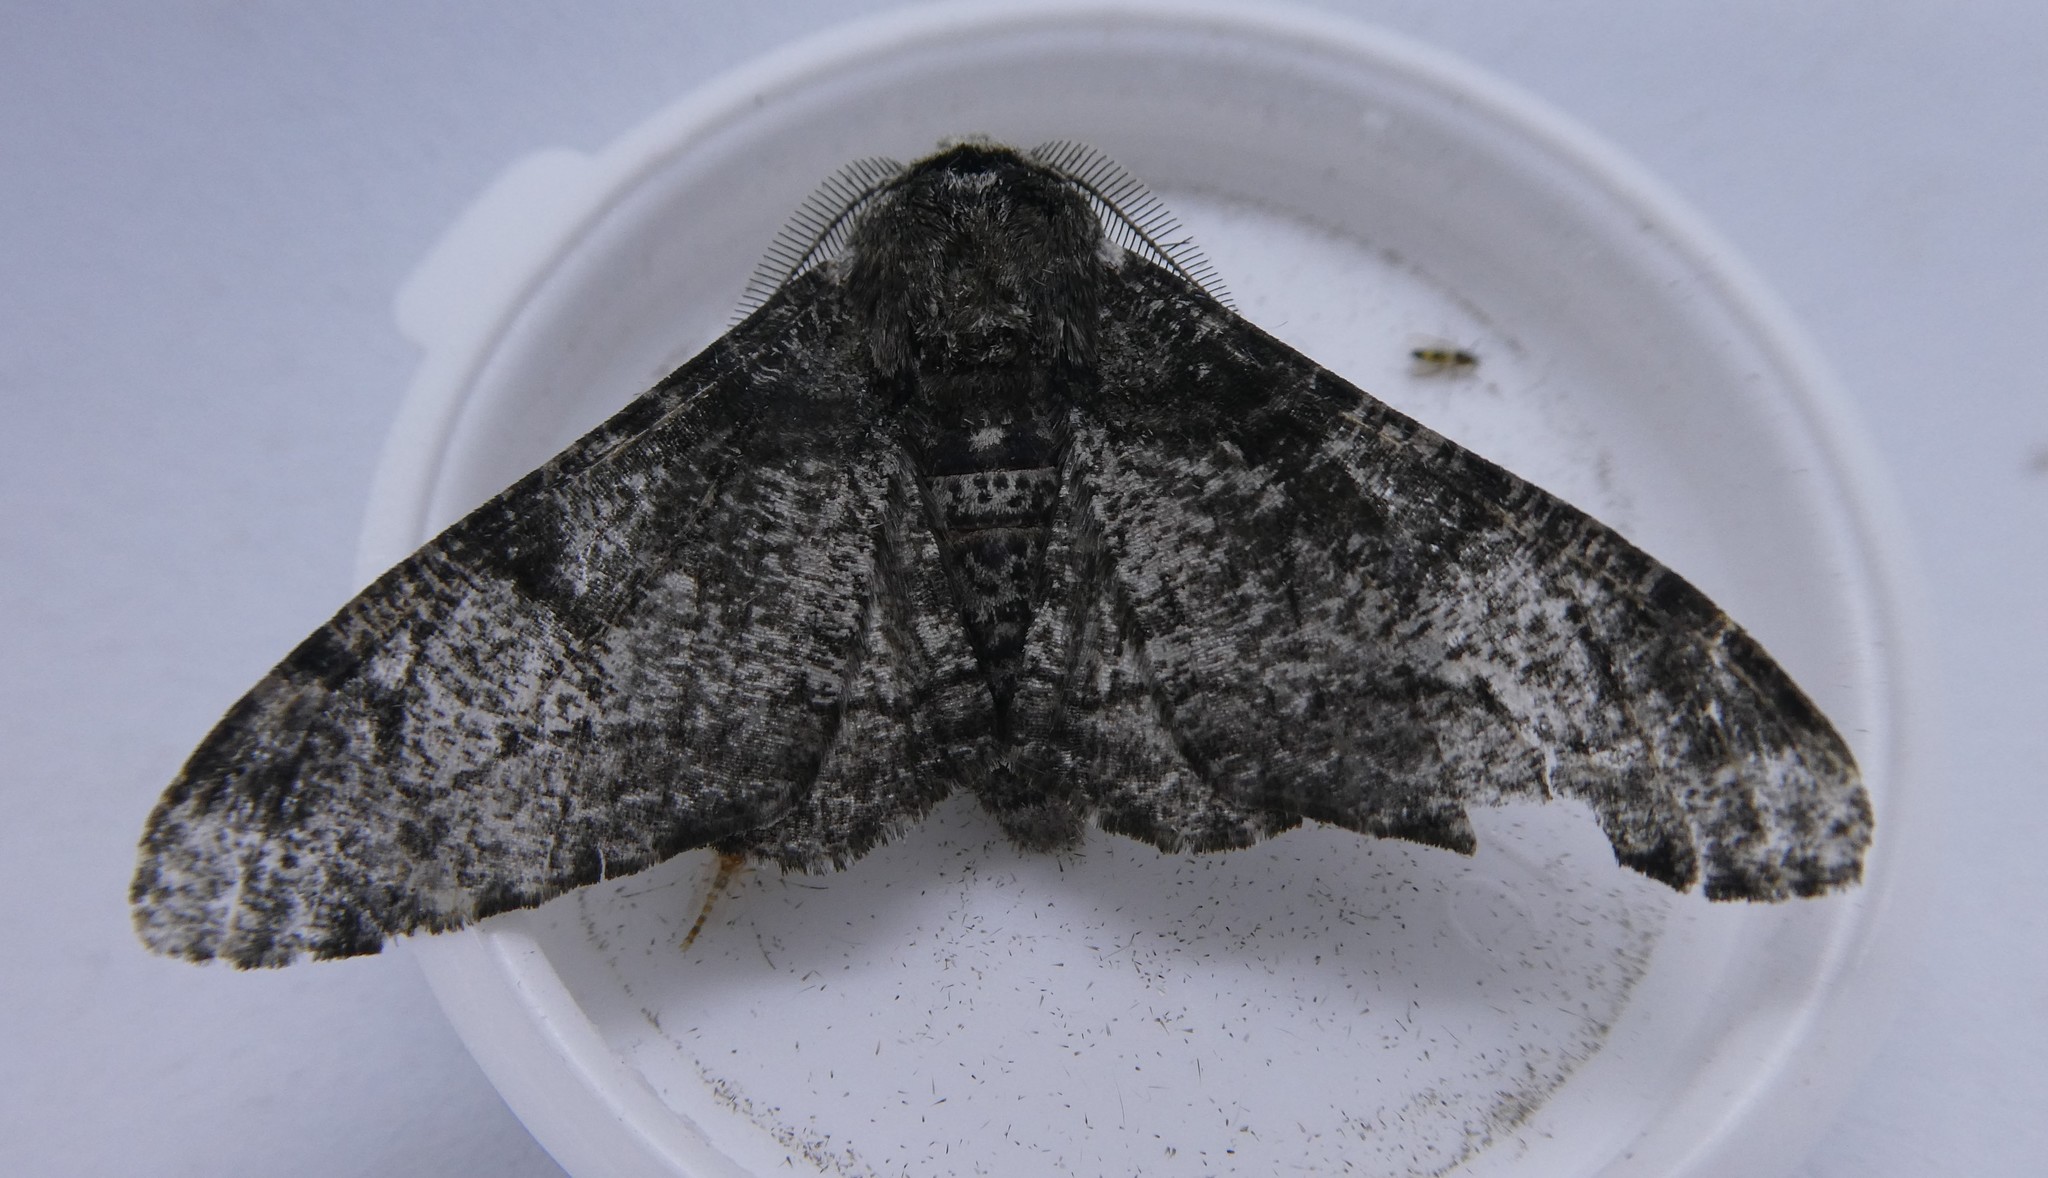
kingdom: Animalia
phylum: Arthropoda
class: Insecta
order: Lepidoptera
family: Geometridae
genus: Biston
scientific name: Biston betularia
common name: Peppered moth
